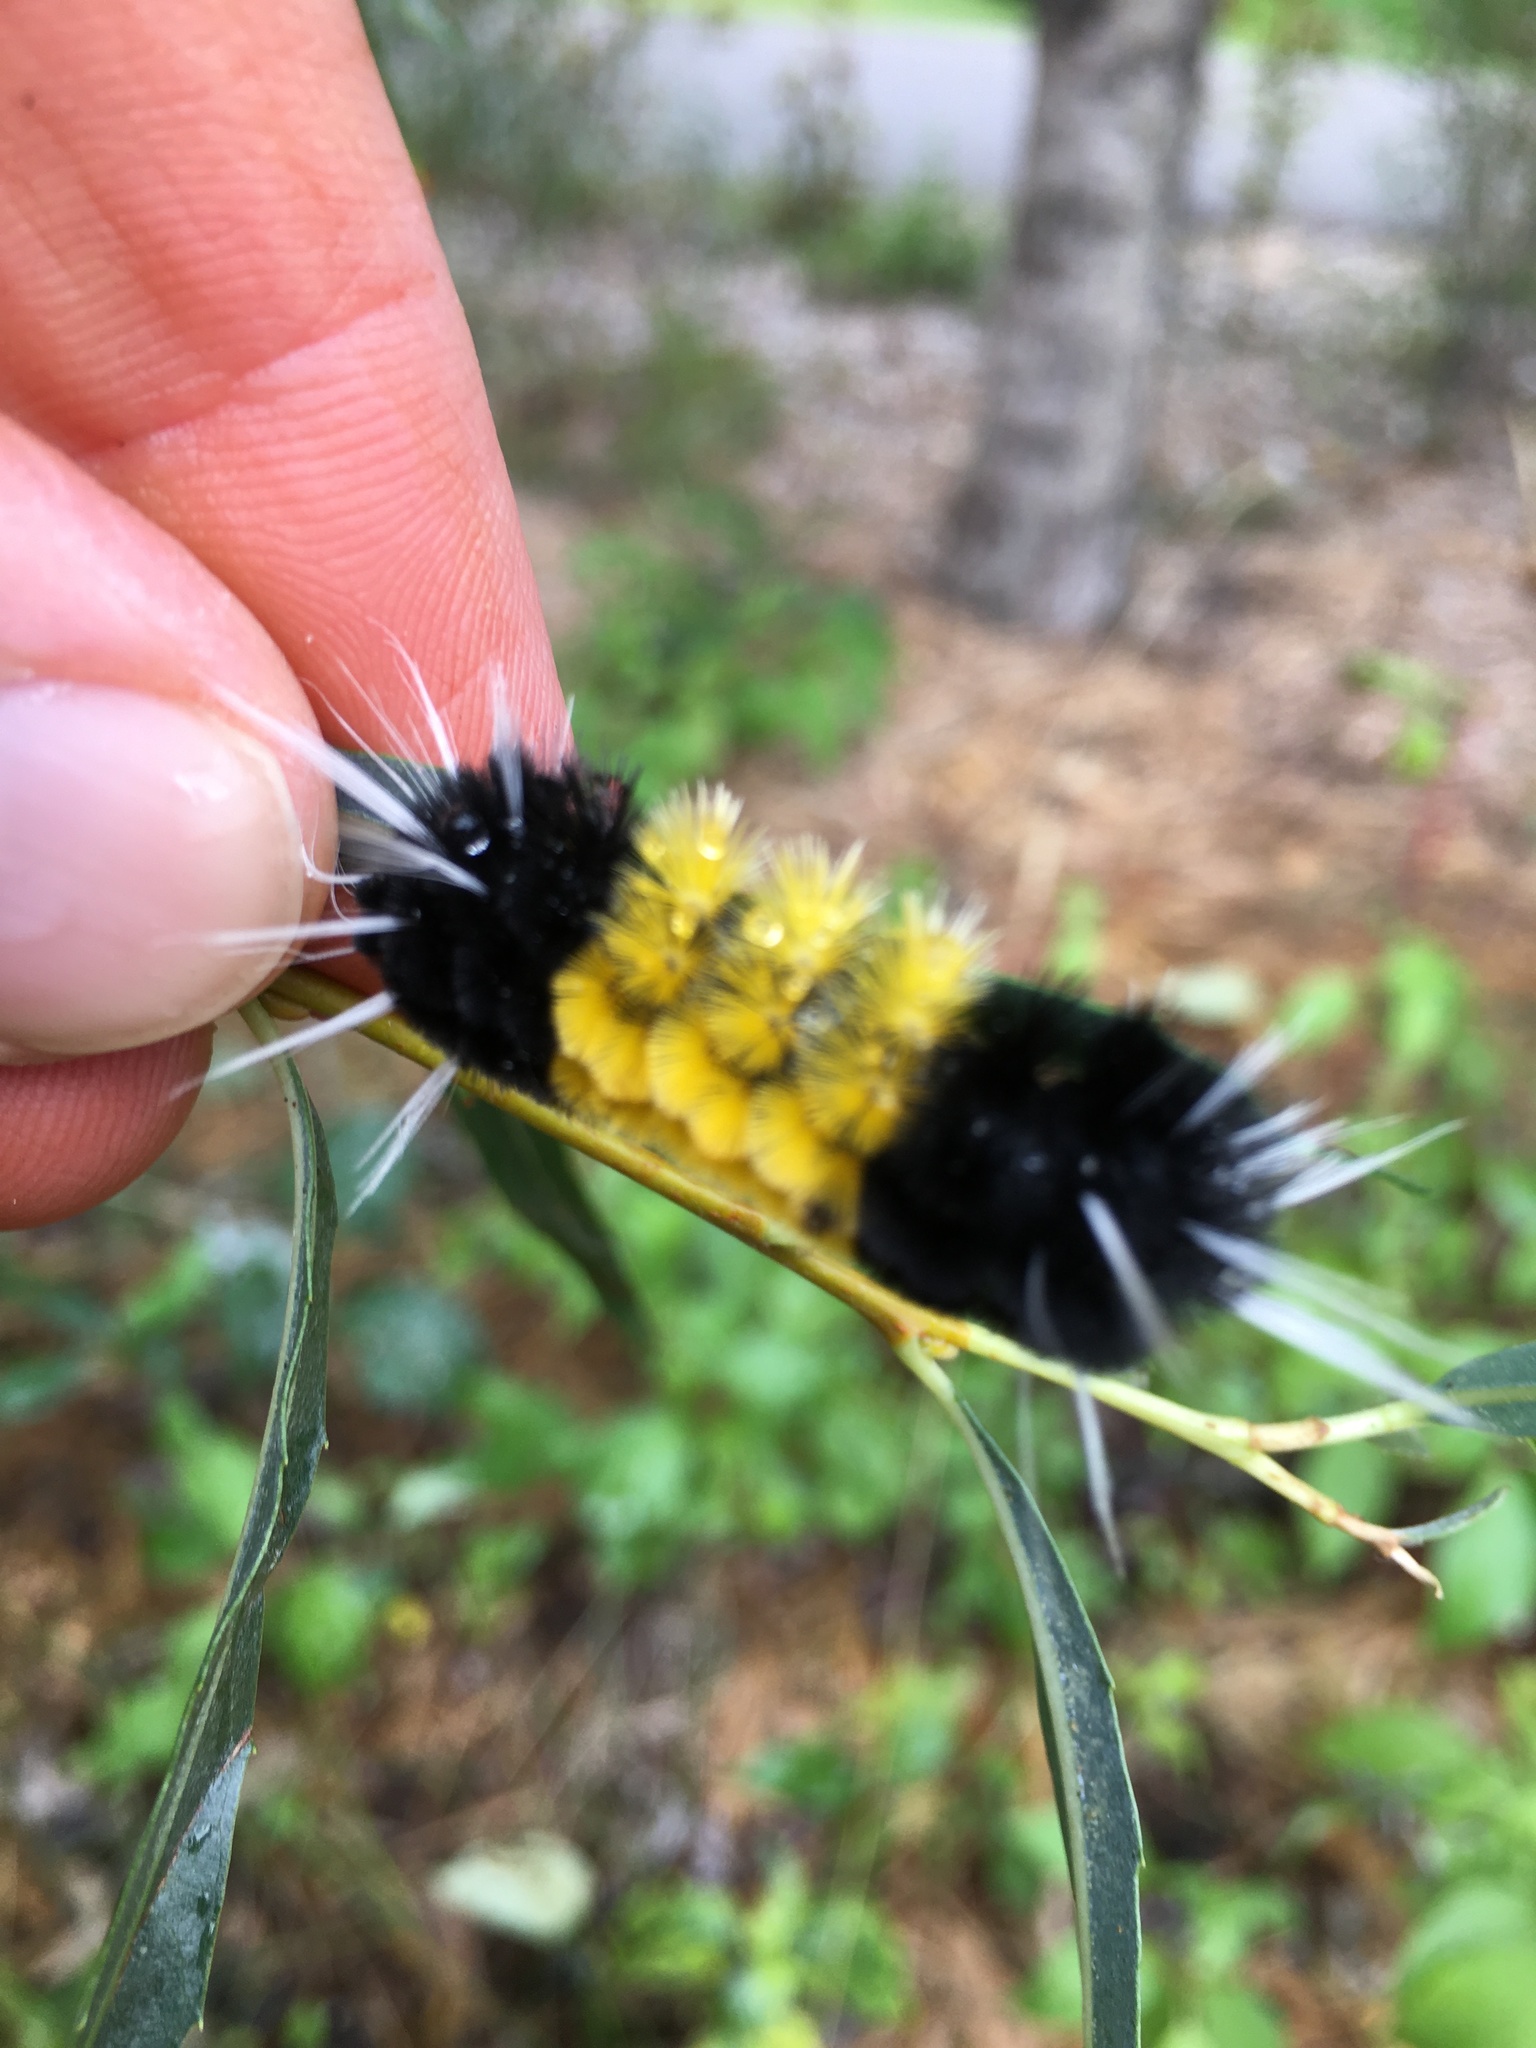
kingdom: Animalia
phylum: Arthropoda
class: Insecta
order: Lepidoptera
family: Erebidae
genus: Lophocampa
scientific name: Lophocampa maculata
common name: Spotted tussock moth
